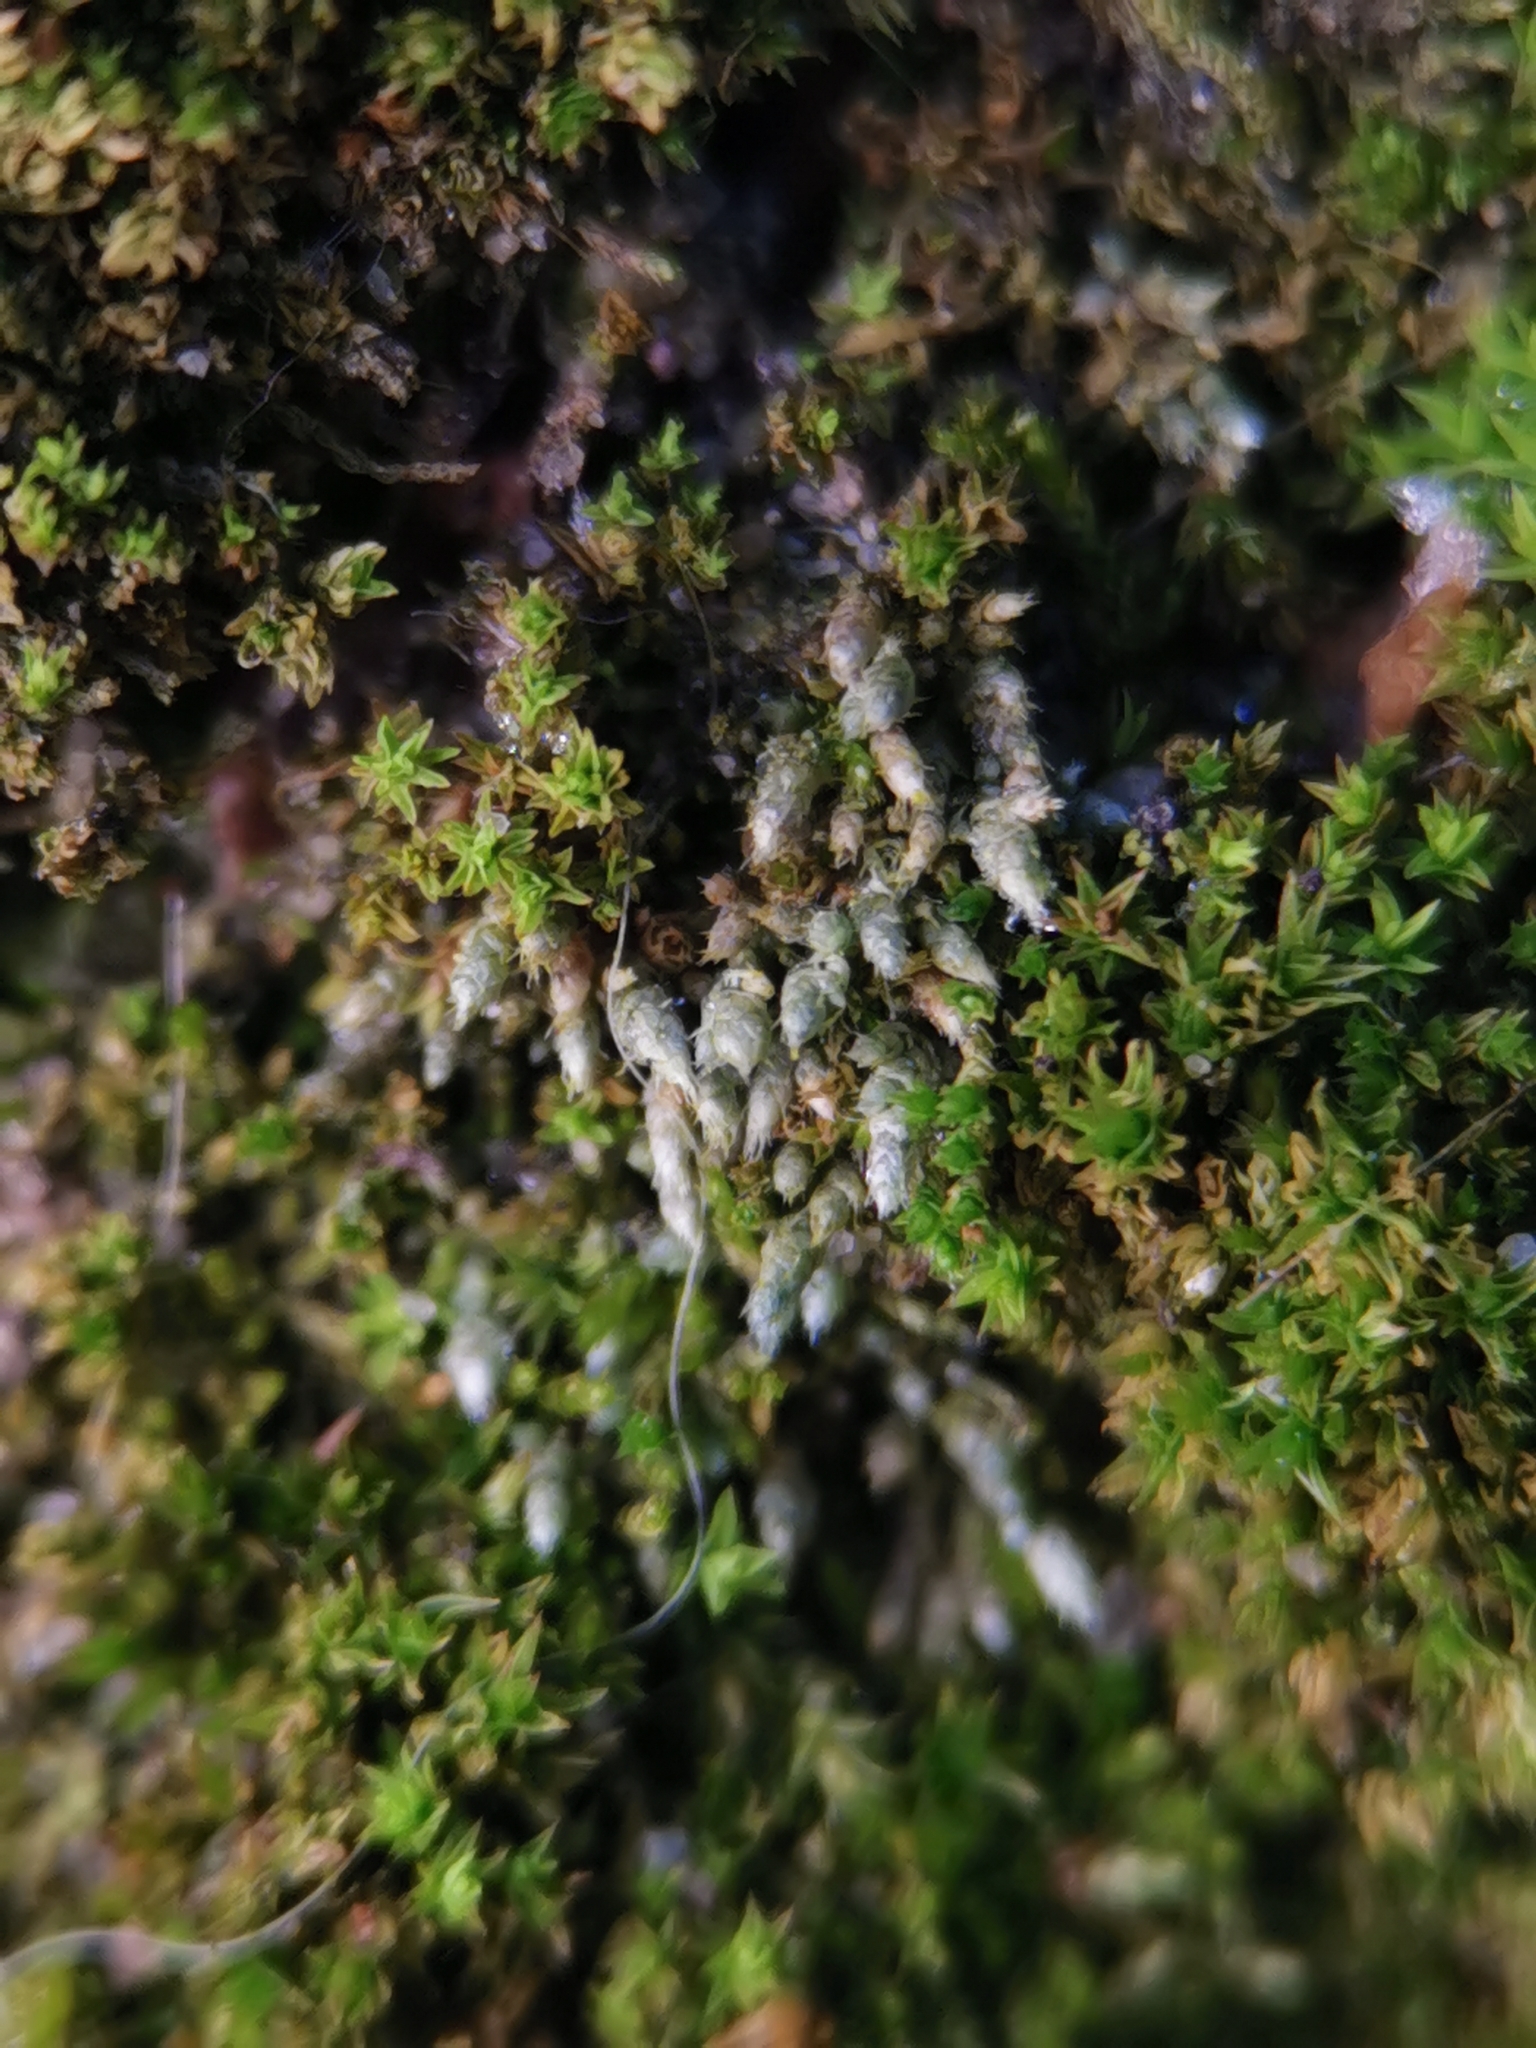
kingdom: Plantae
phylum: Bryophyta
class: Bryopsida
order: Bryales
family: Bryaceae
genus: Bryum
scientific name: Bryum argenteum
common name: Silver-moss
